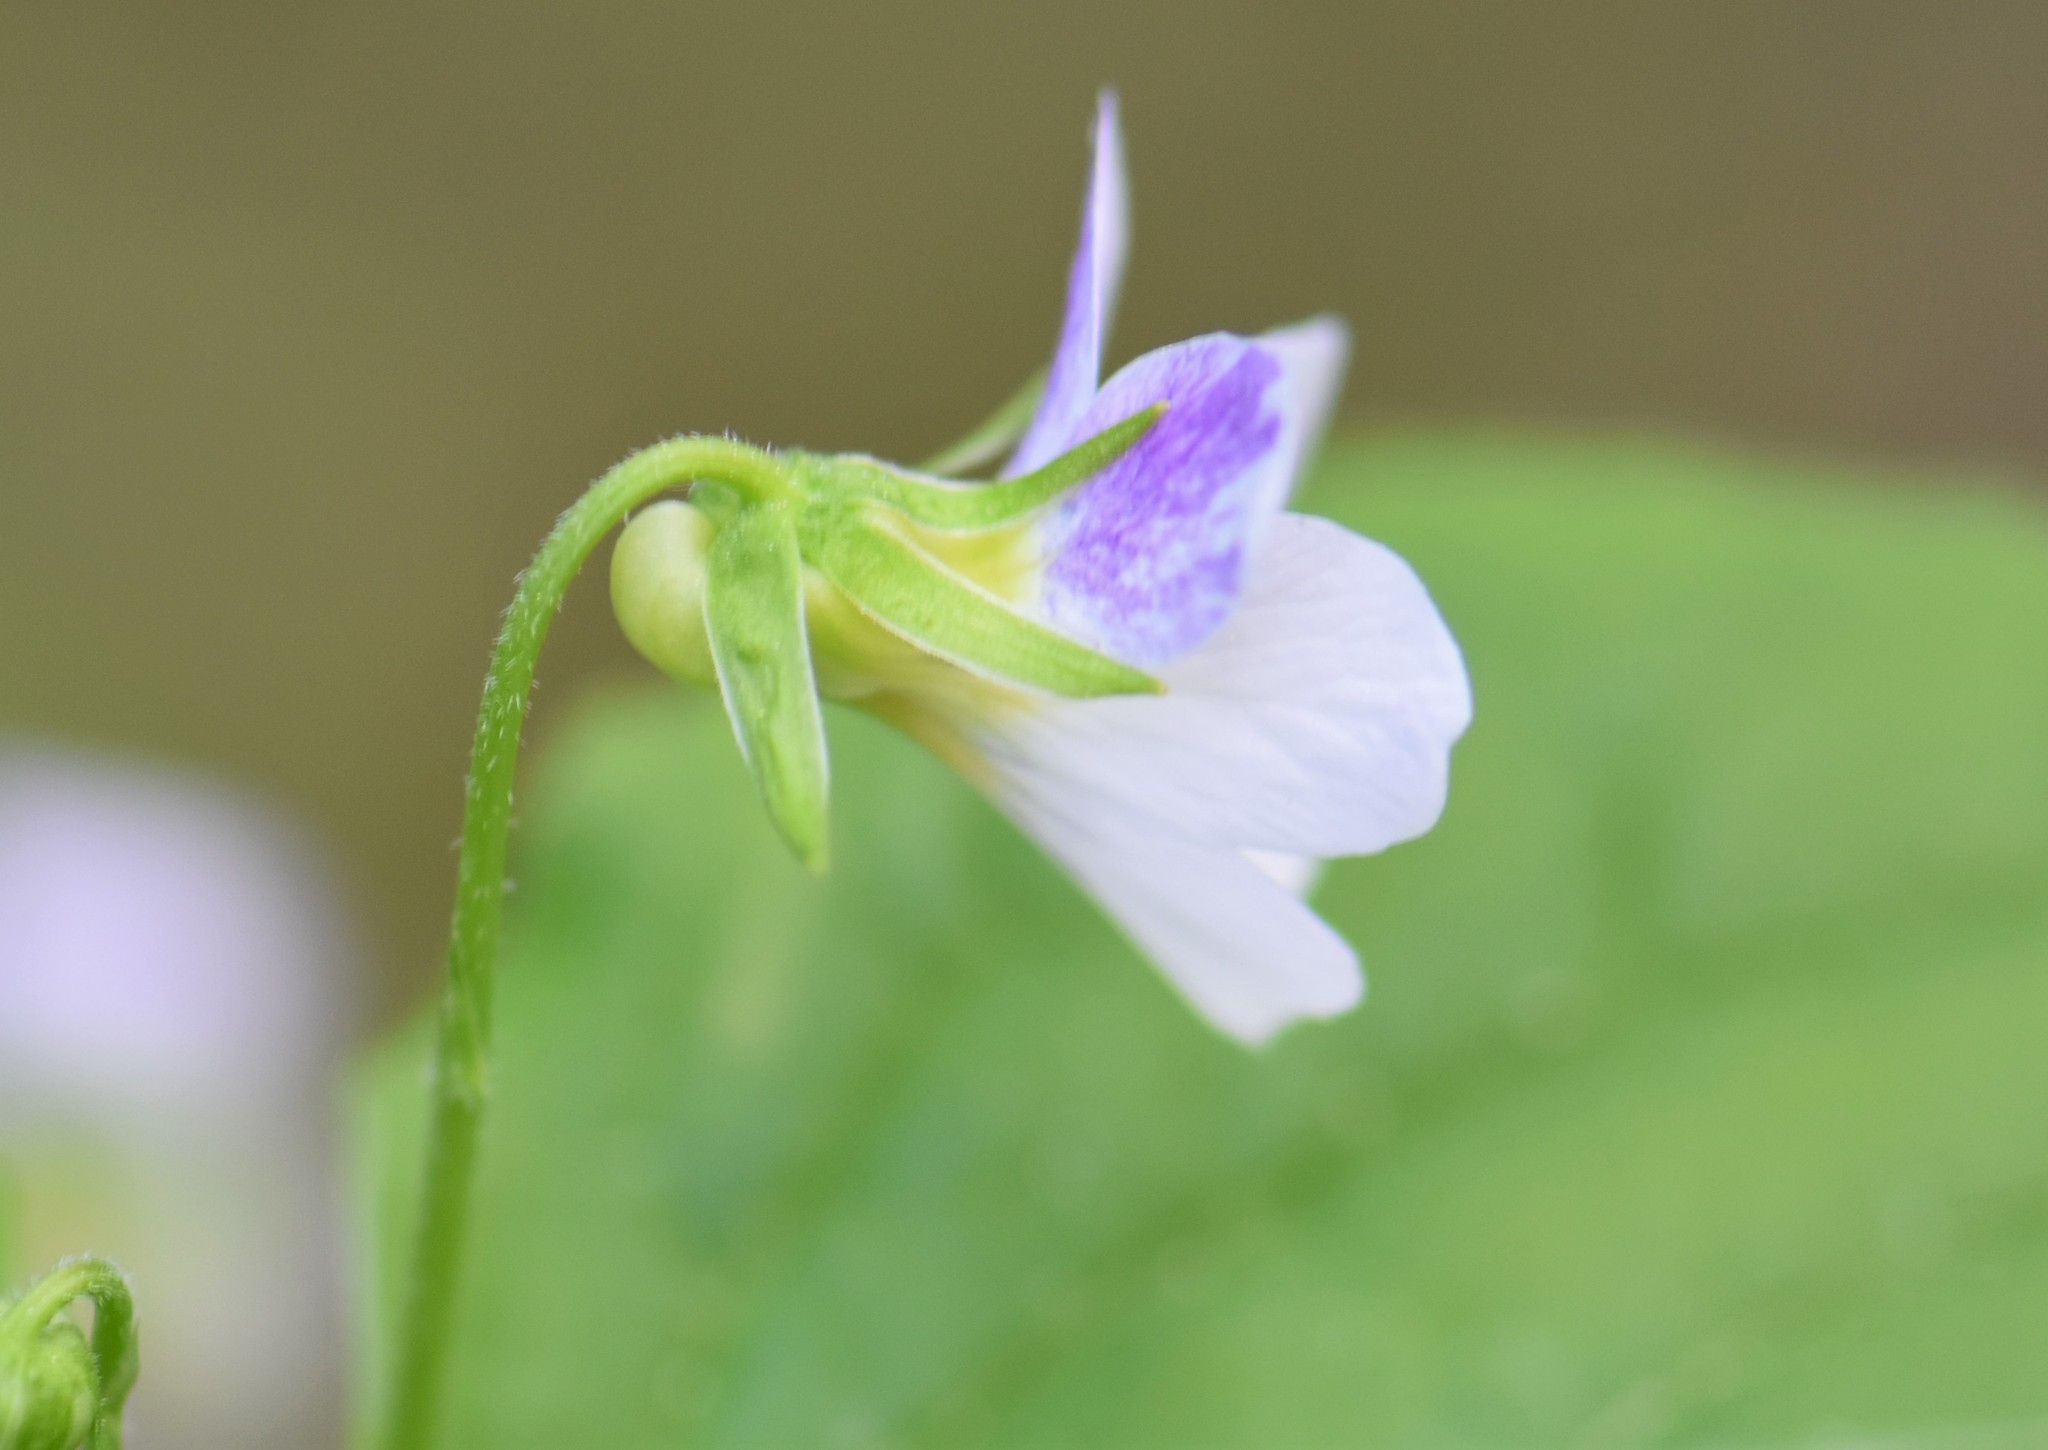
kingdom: Plantae
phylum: Tracheophyta
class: Magnoliopsida
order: Malpighiales
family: Violaceae
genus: Viola
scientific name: Viola canadensis
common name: Canada violet
